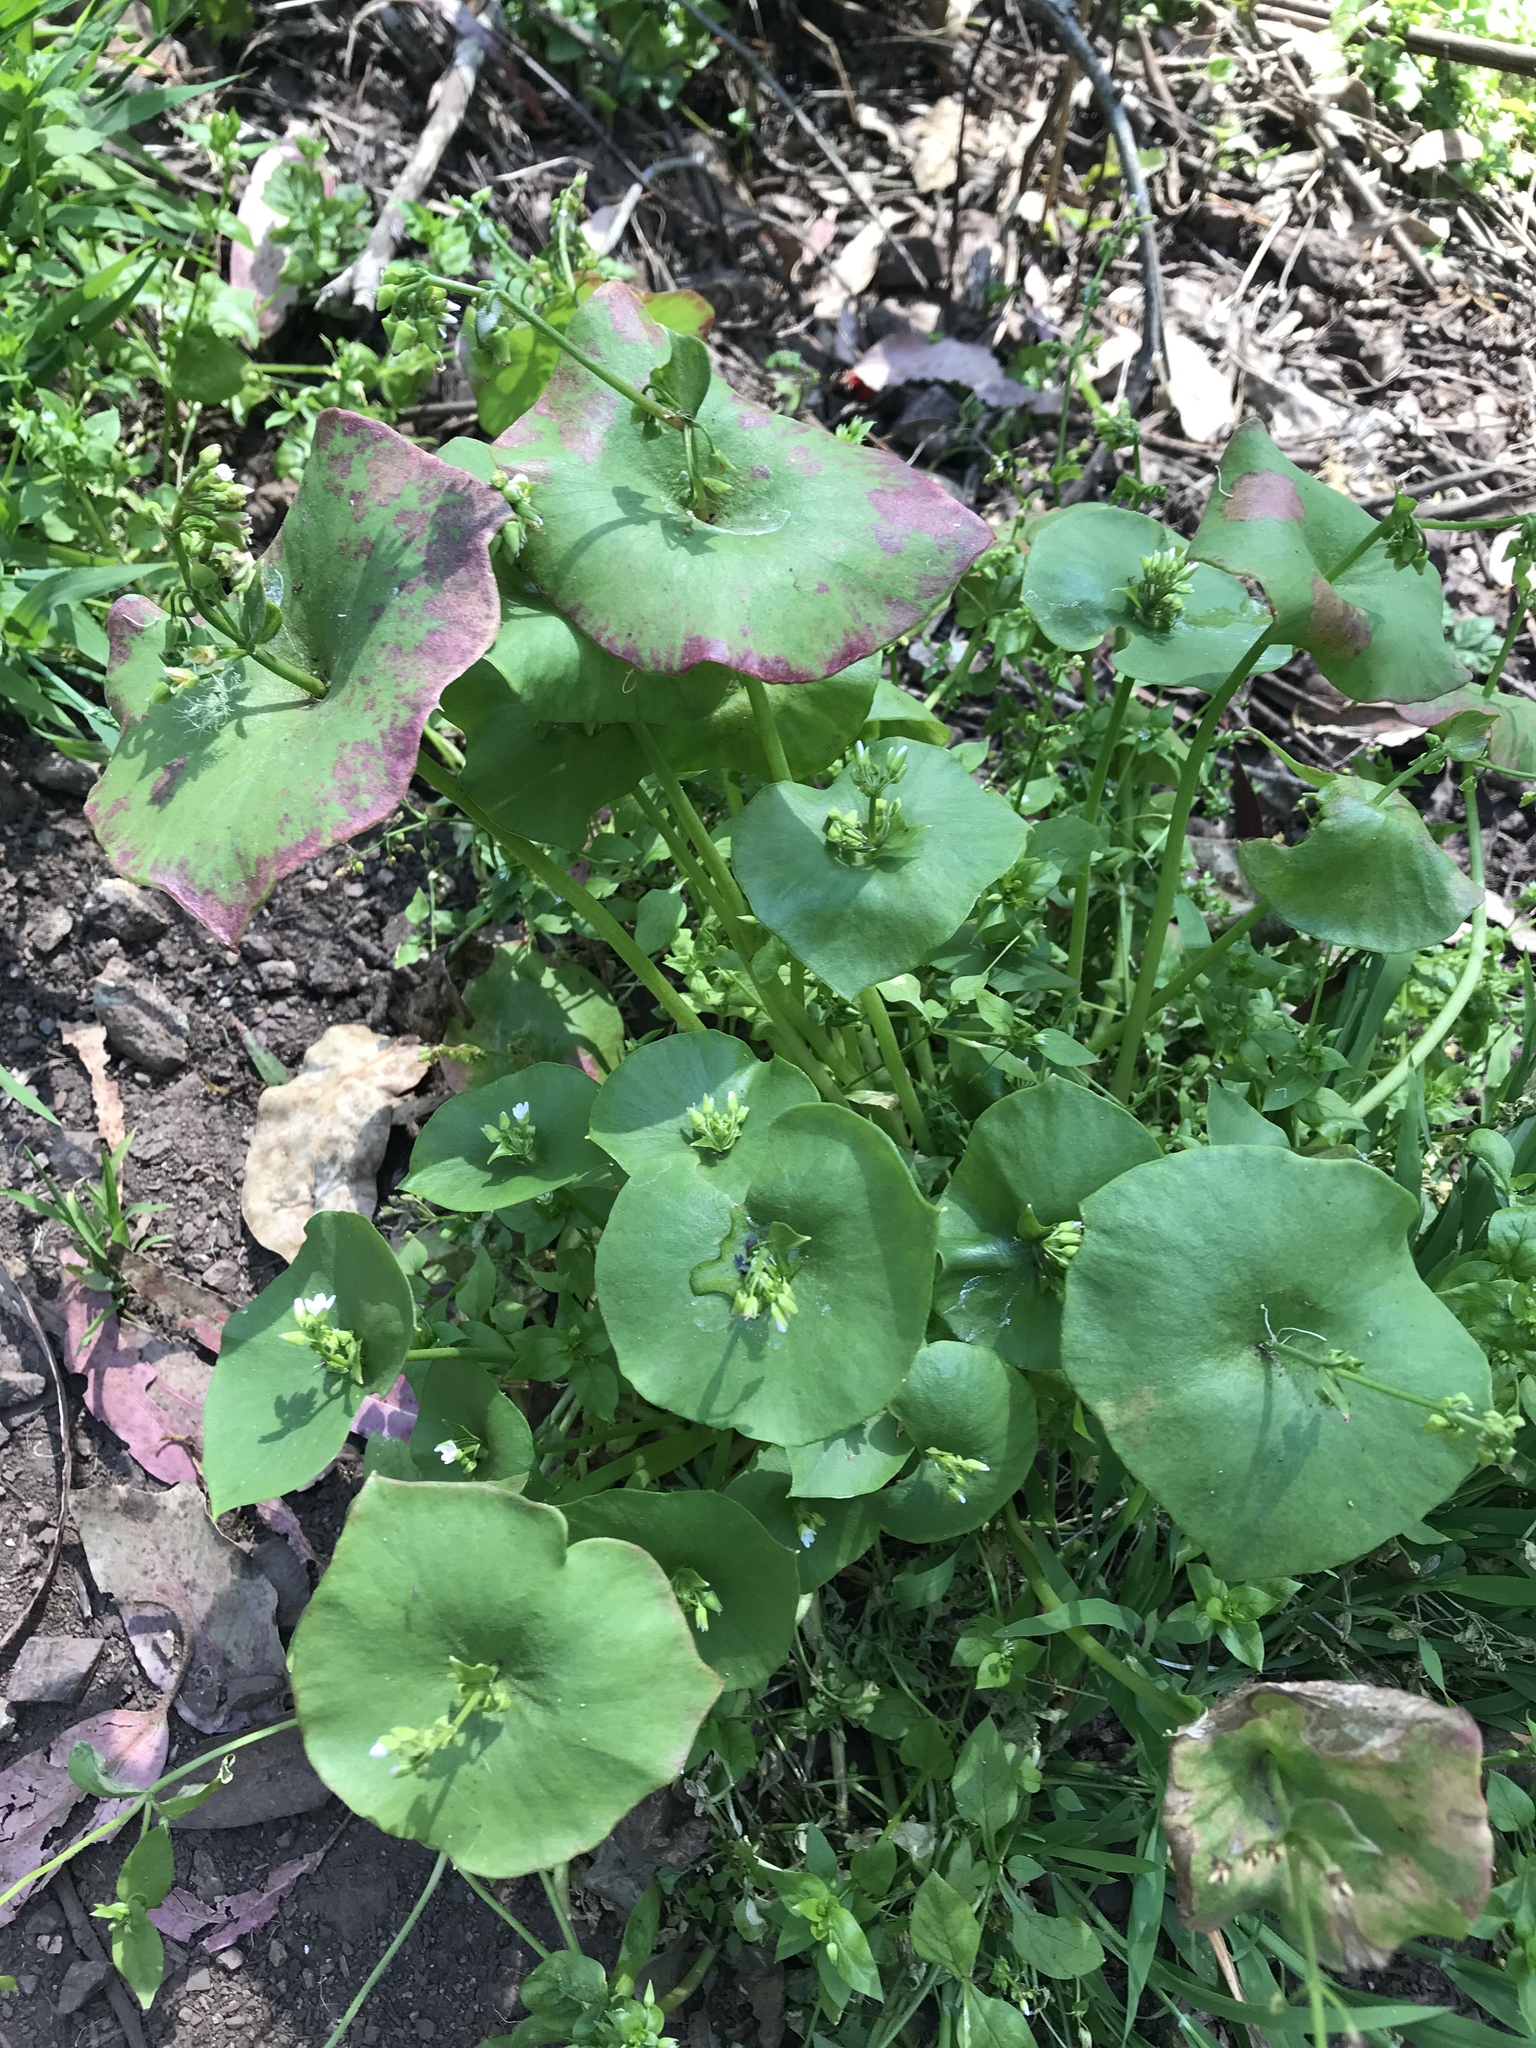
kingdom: Plantae
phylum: Tracheophyta
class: Magnoliopsida
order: Caryophyllales
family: Montiaceae
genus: Claytonia
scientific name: Claytonia perfoliata
